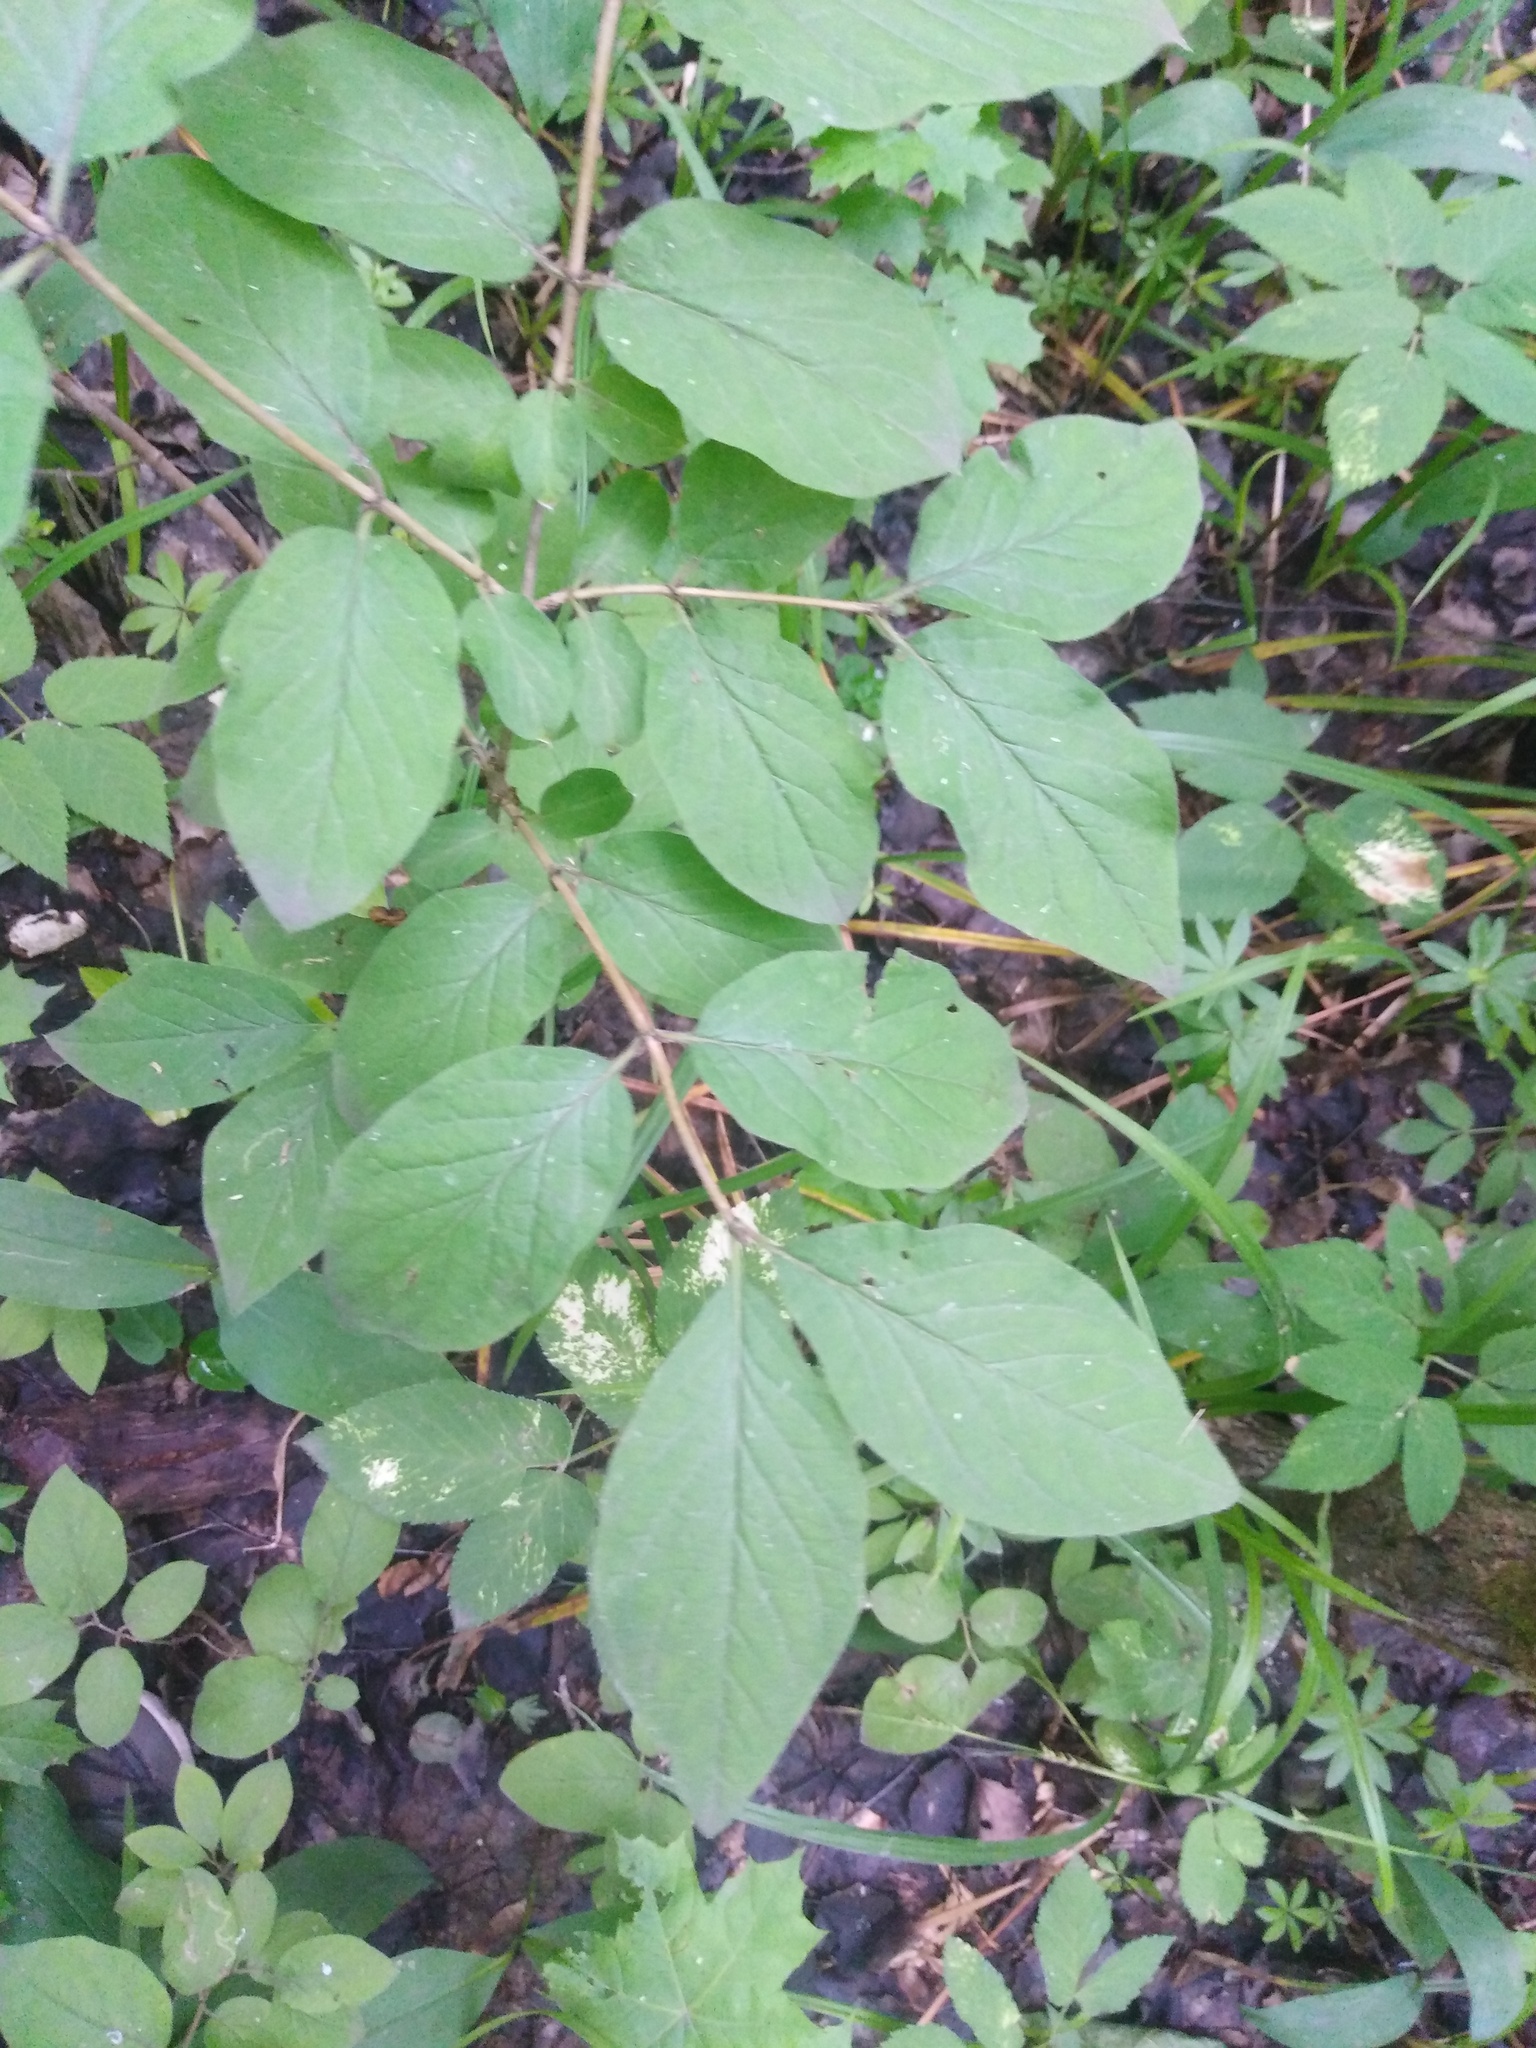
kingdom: Plantae
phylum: Tracheophyta
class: Magnoliopsida
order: Dipsacales
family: Caprifoliaceae
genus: Lonicera
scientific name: Lonicera xylosteum
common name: Fly honeysuckle
